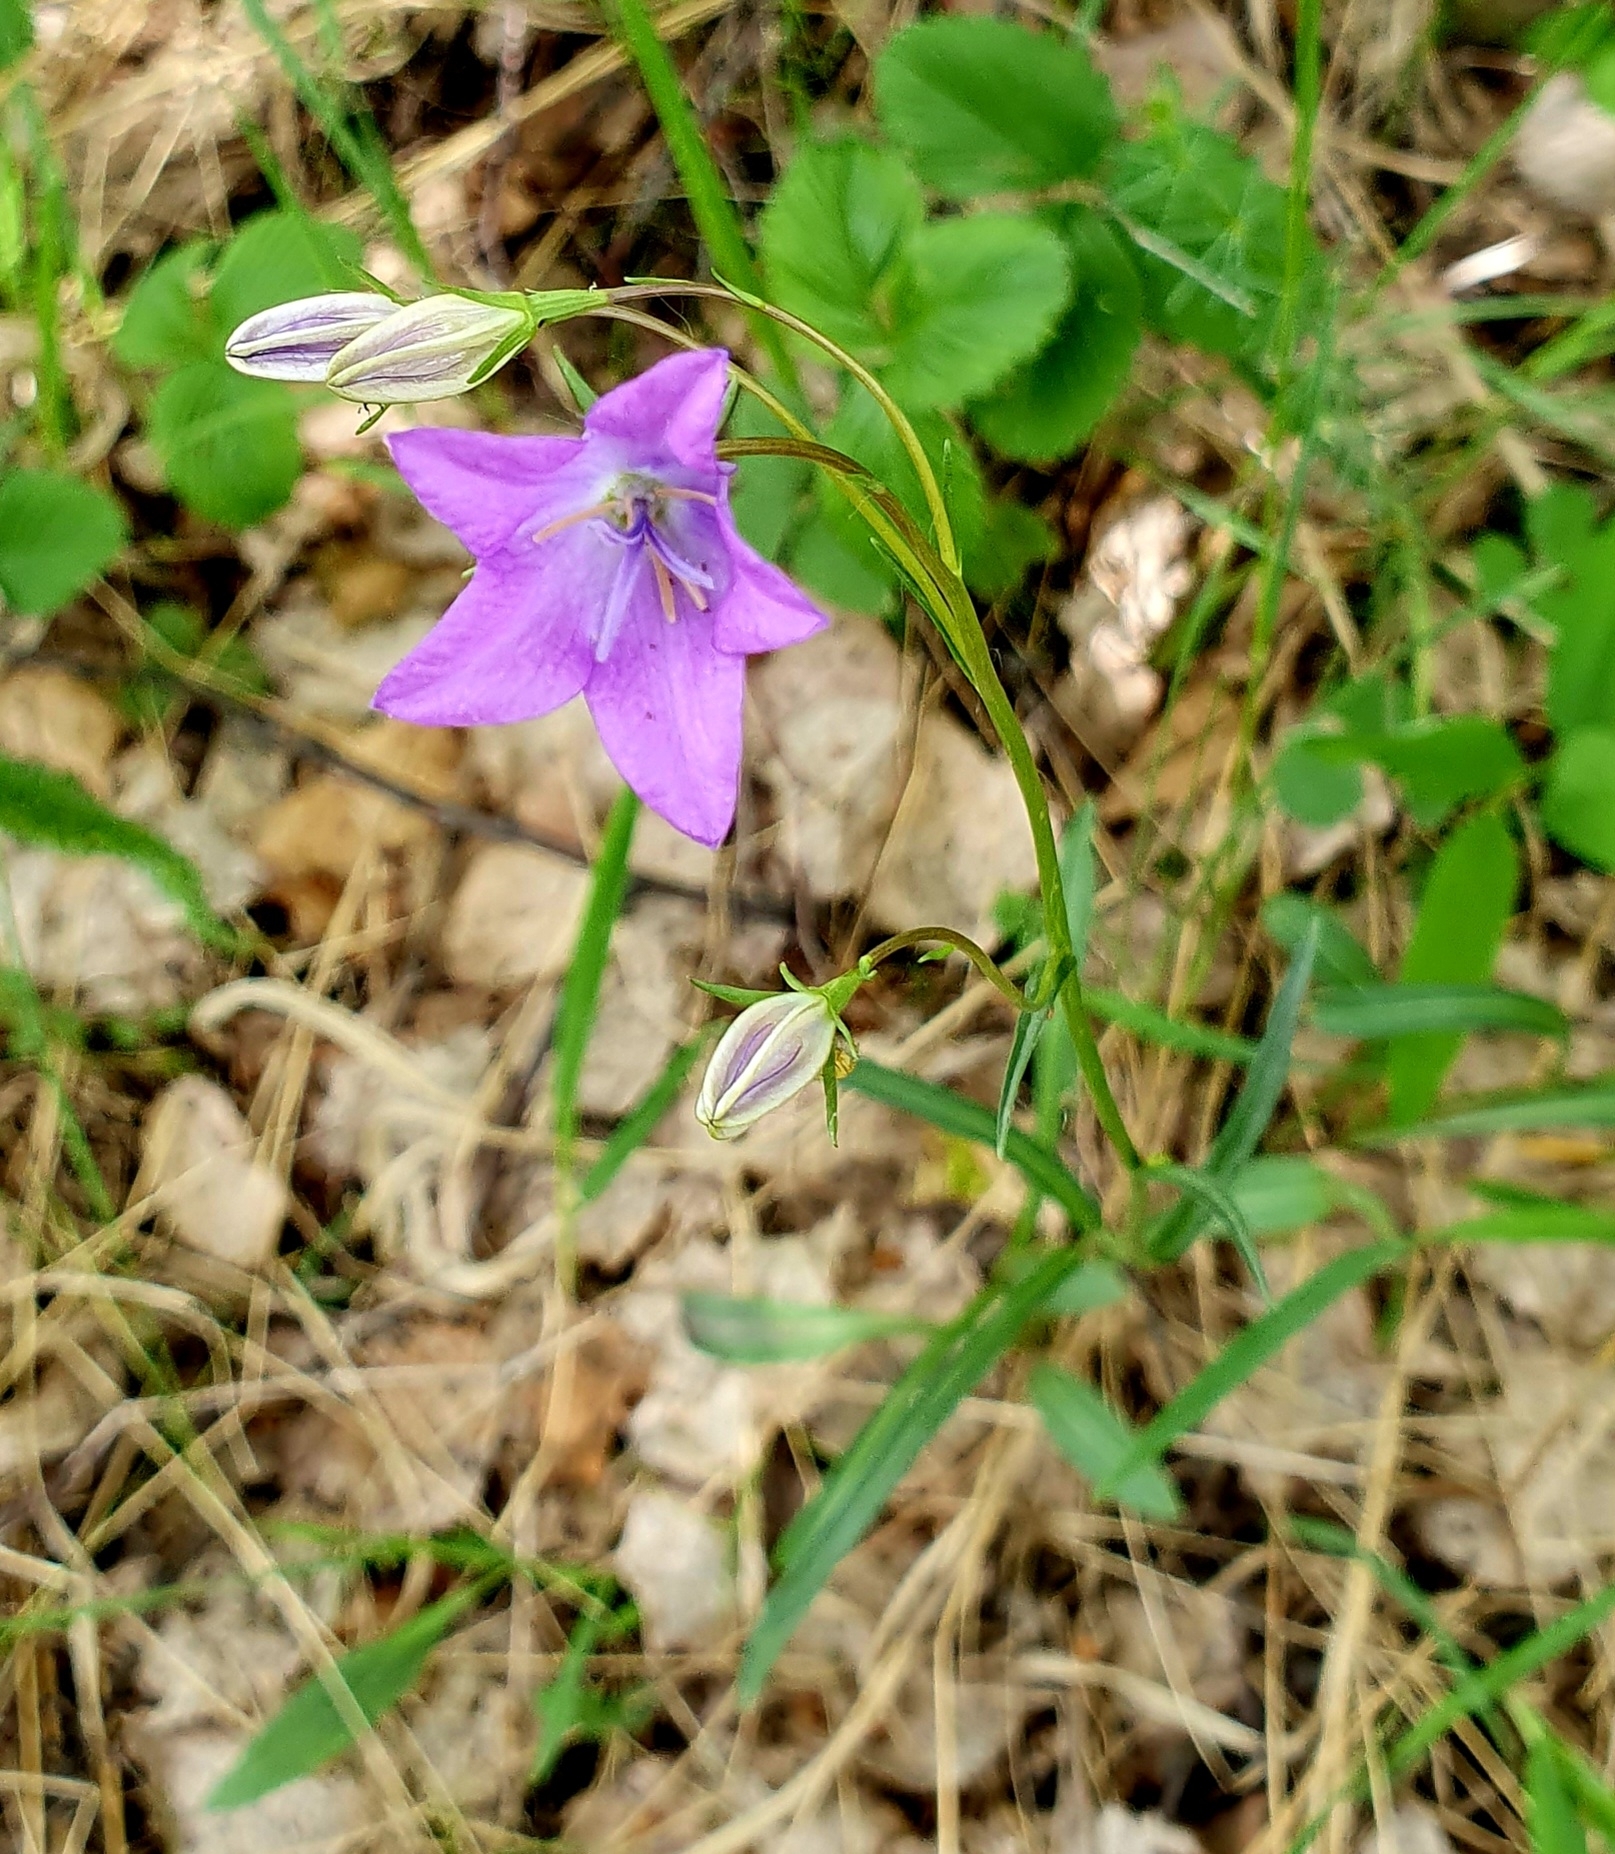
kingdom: Plantae
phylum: Tracheophyta
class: Magnoliopsida
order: Asterales
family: Campanulaceae
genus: Campanula
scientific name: Campanula stevenii
